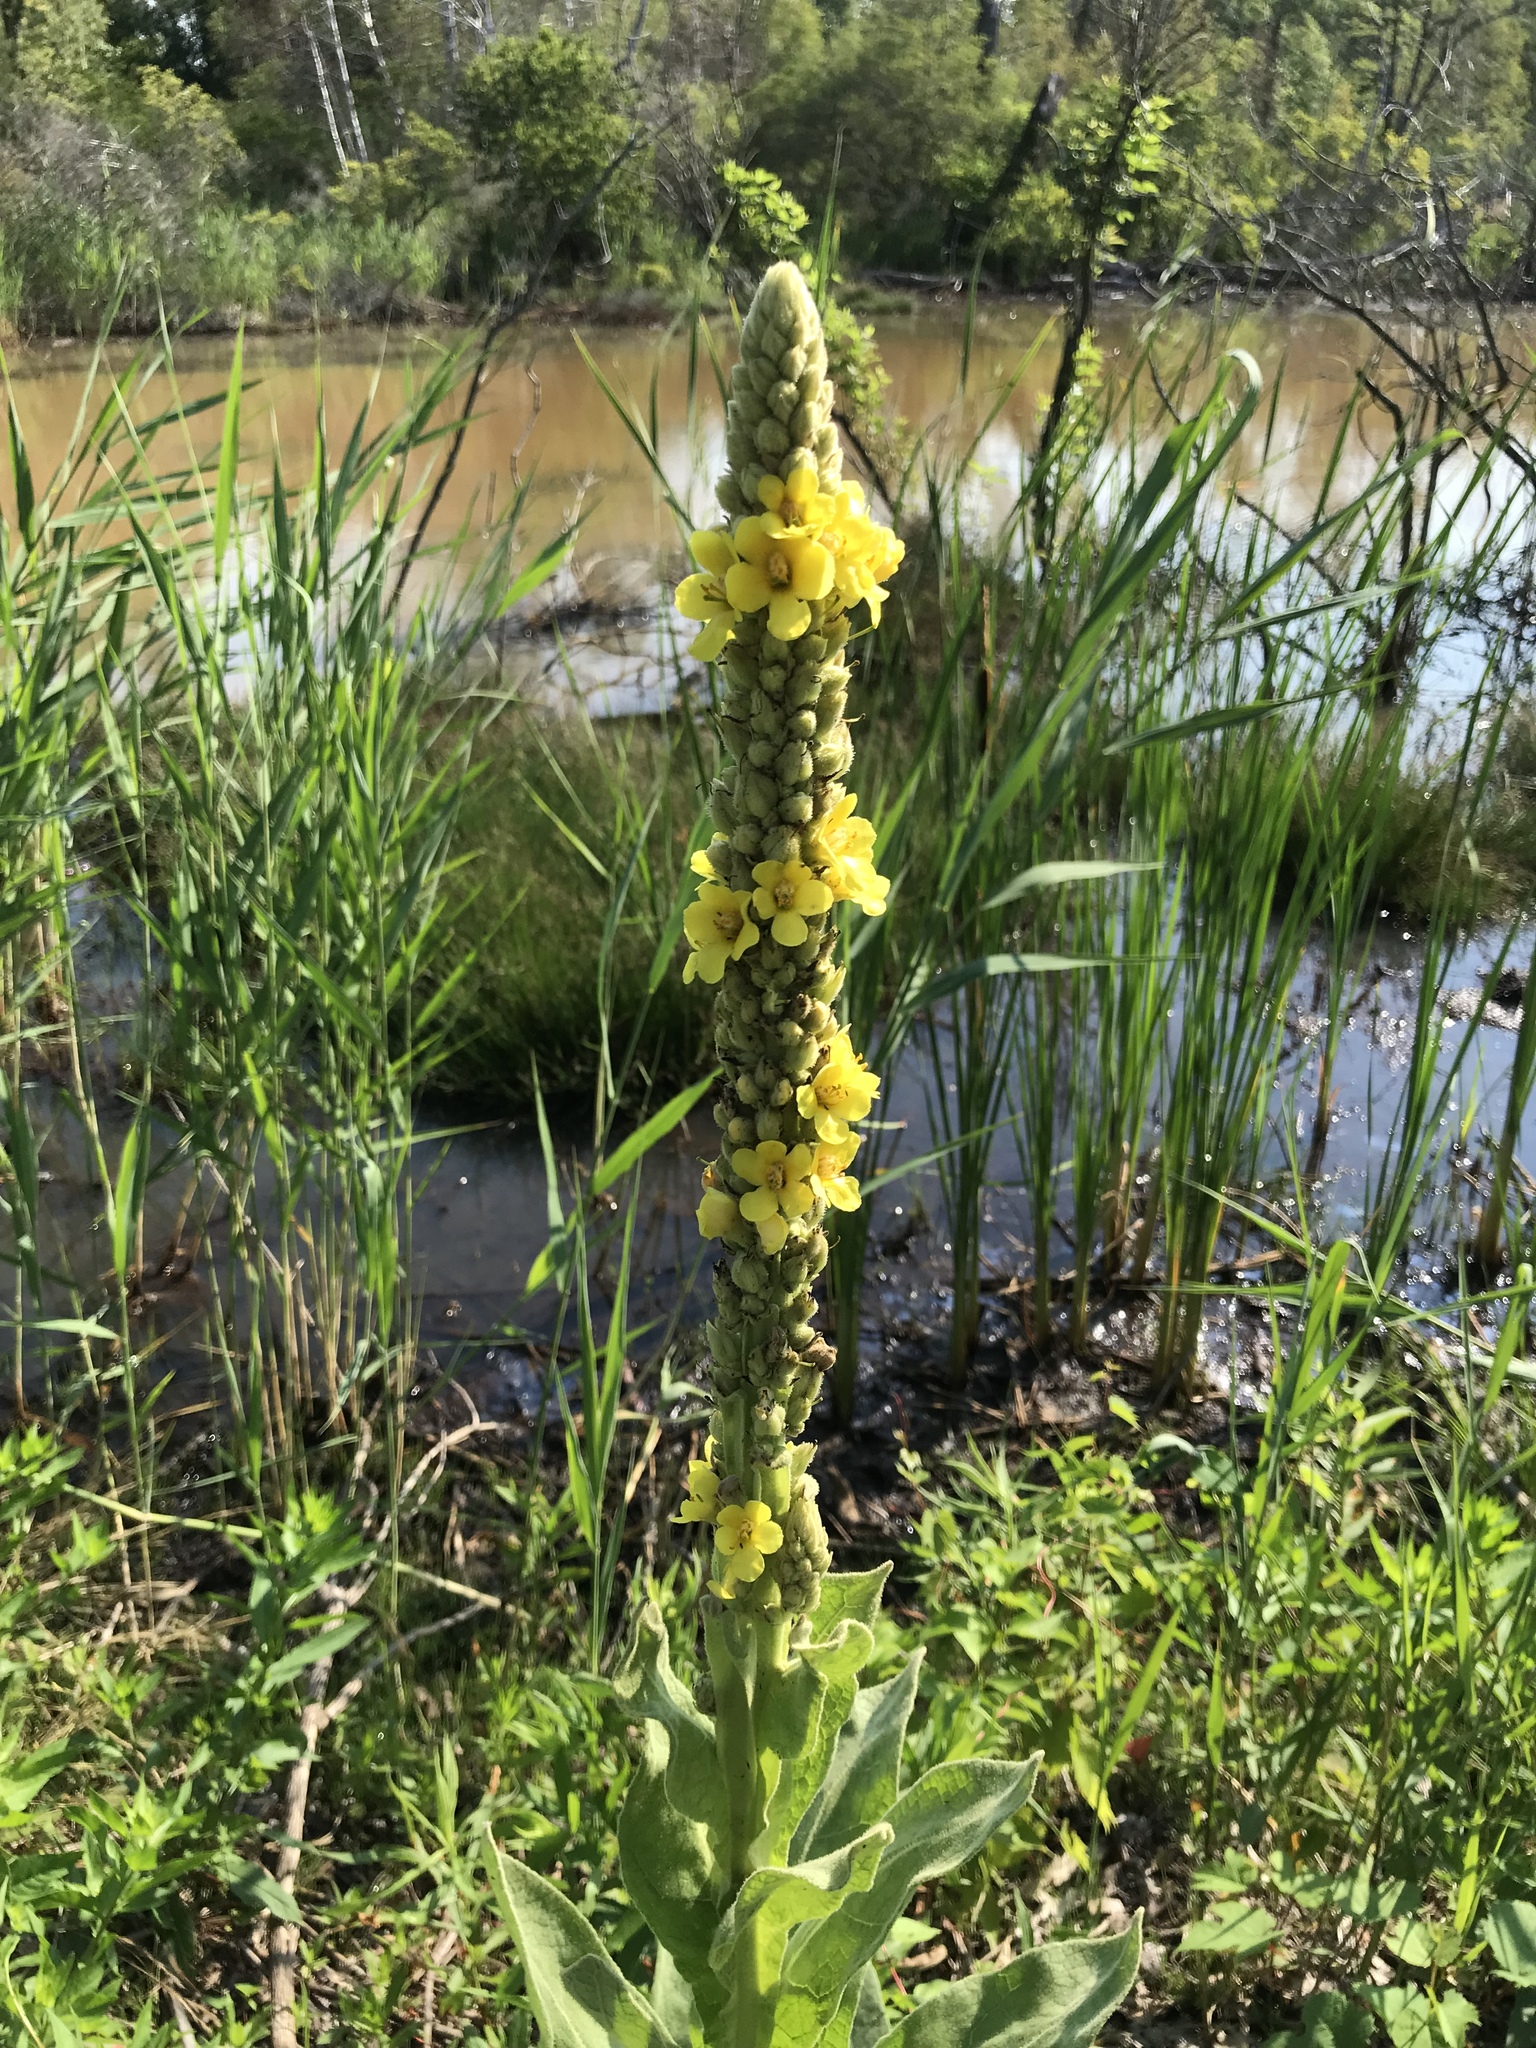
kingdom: Plantae
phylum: Tracheophyta
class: Magnoliopsida
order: Lamiales
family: Scrophulariaceae
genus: Verbascum
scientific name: Verbascum thapsus
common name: Common mullein
